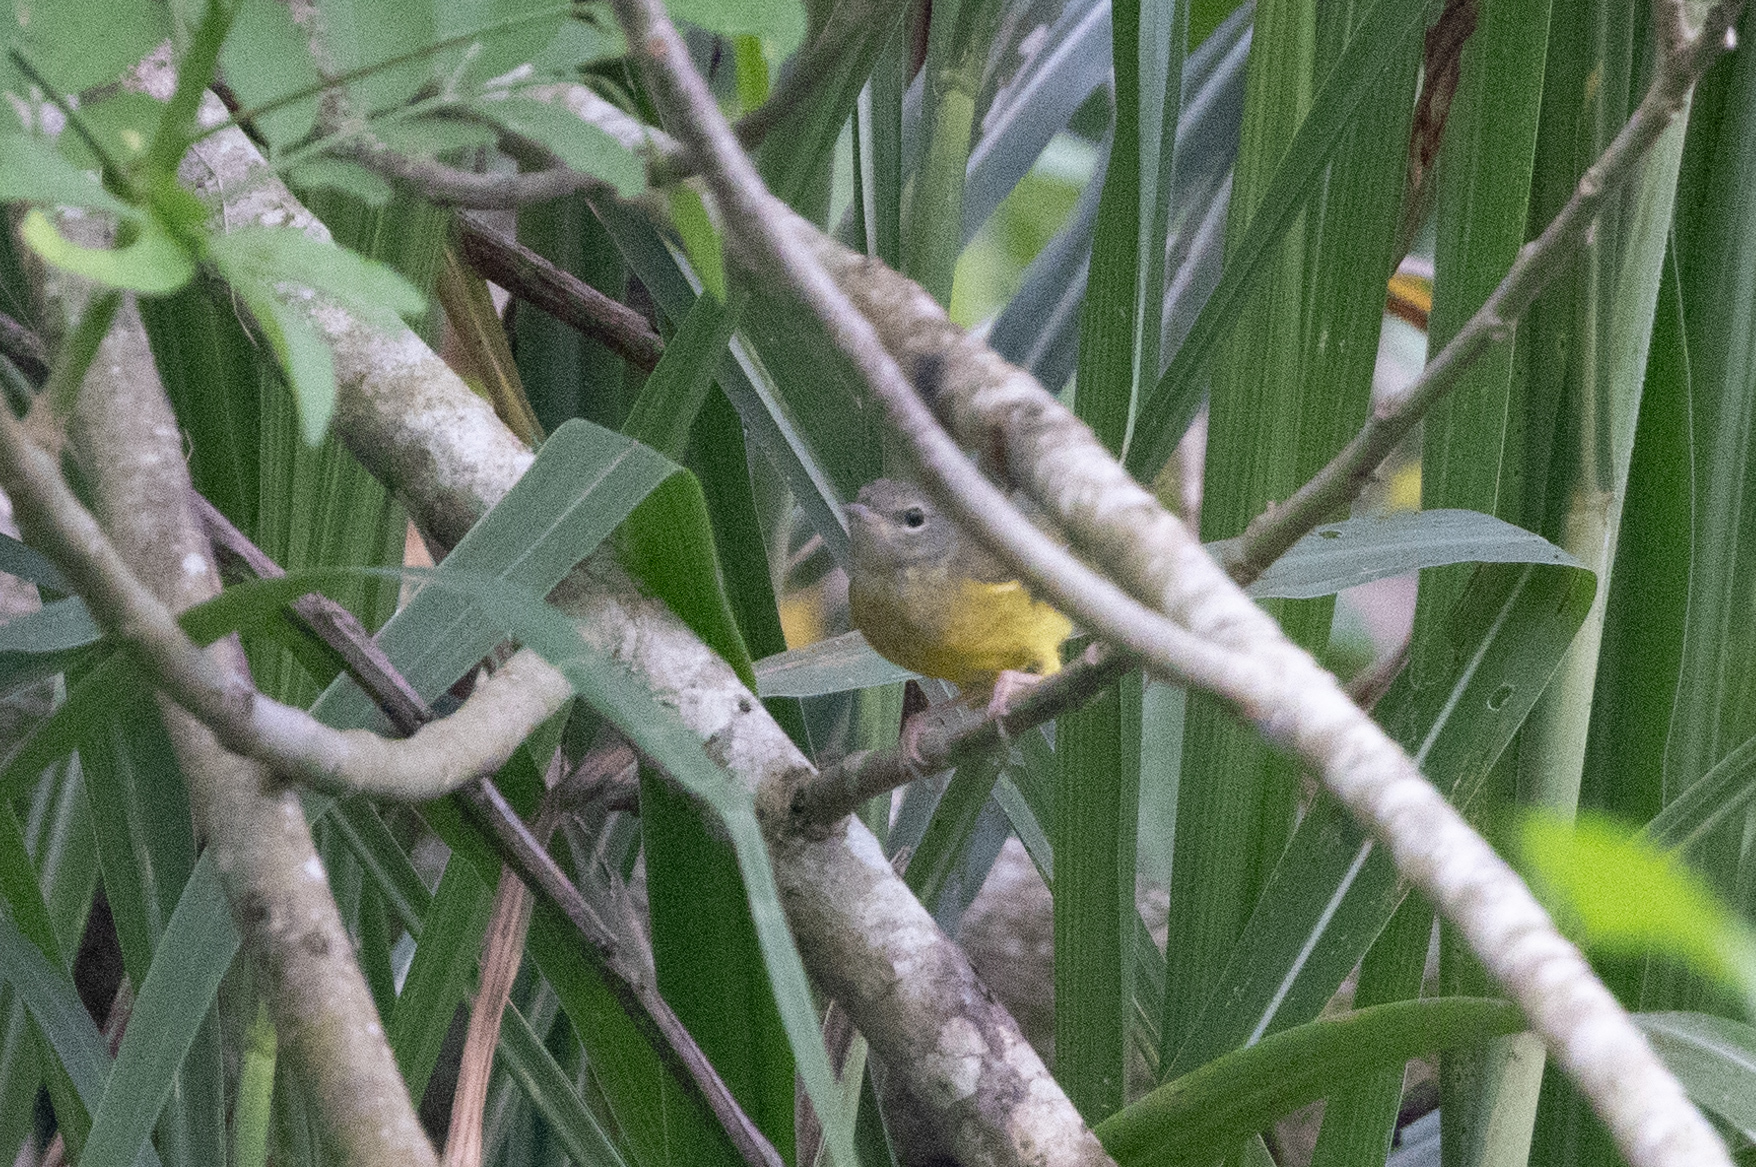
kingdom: Animalia
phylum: Chordata
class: Aves
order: Passeriformes
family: Parulidae
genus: Geothlypis
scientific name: Geothlypis philadelphia
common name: Mourning warbler
